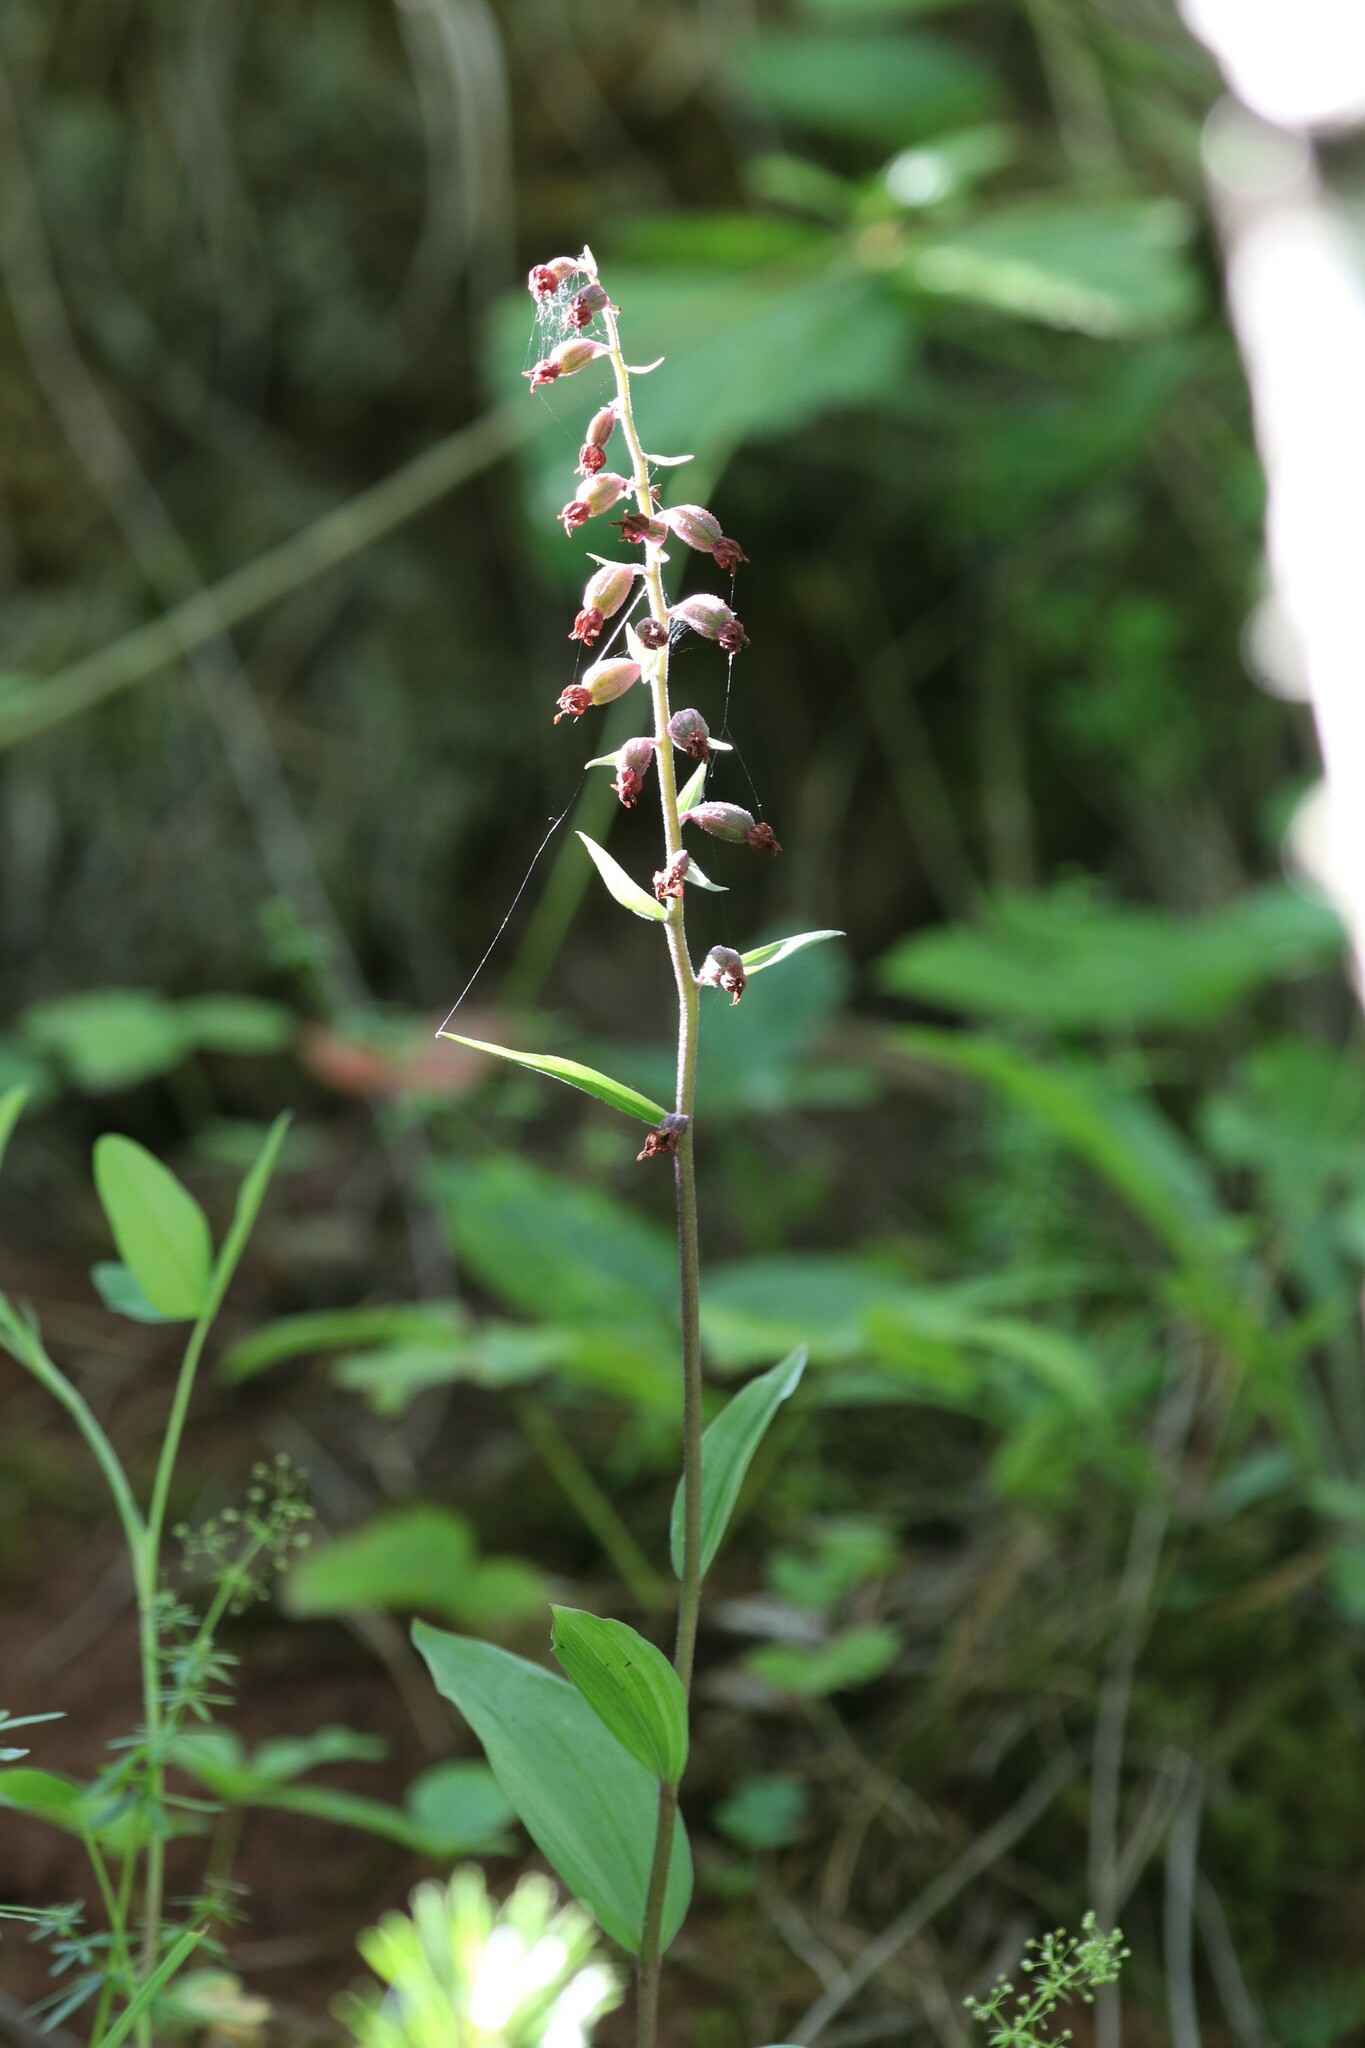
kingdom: Plantae
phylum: Tracheophyta
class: Liliopsida
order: Asparagales
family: Orchidaceae
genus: Epipactis
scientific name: Epipactis atrorubens
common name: Dark-red helleborine
